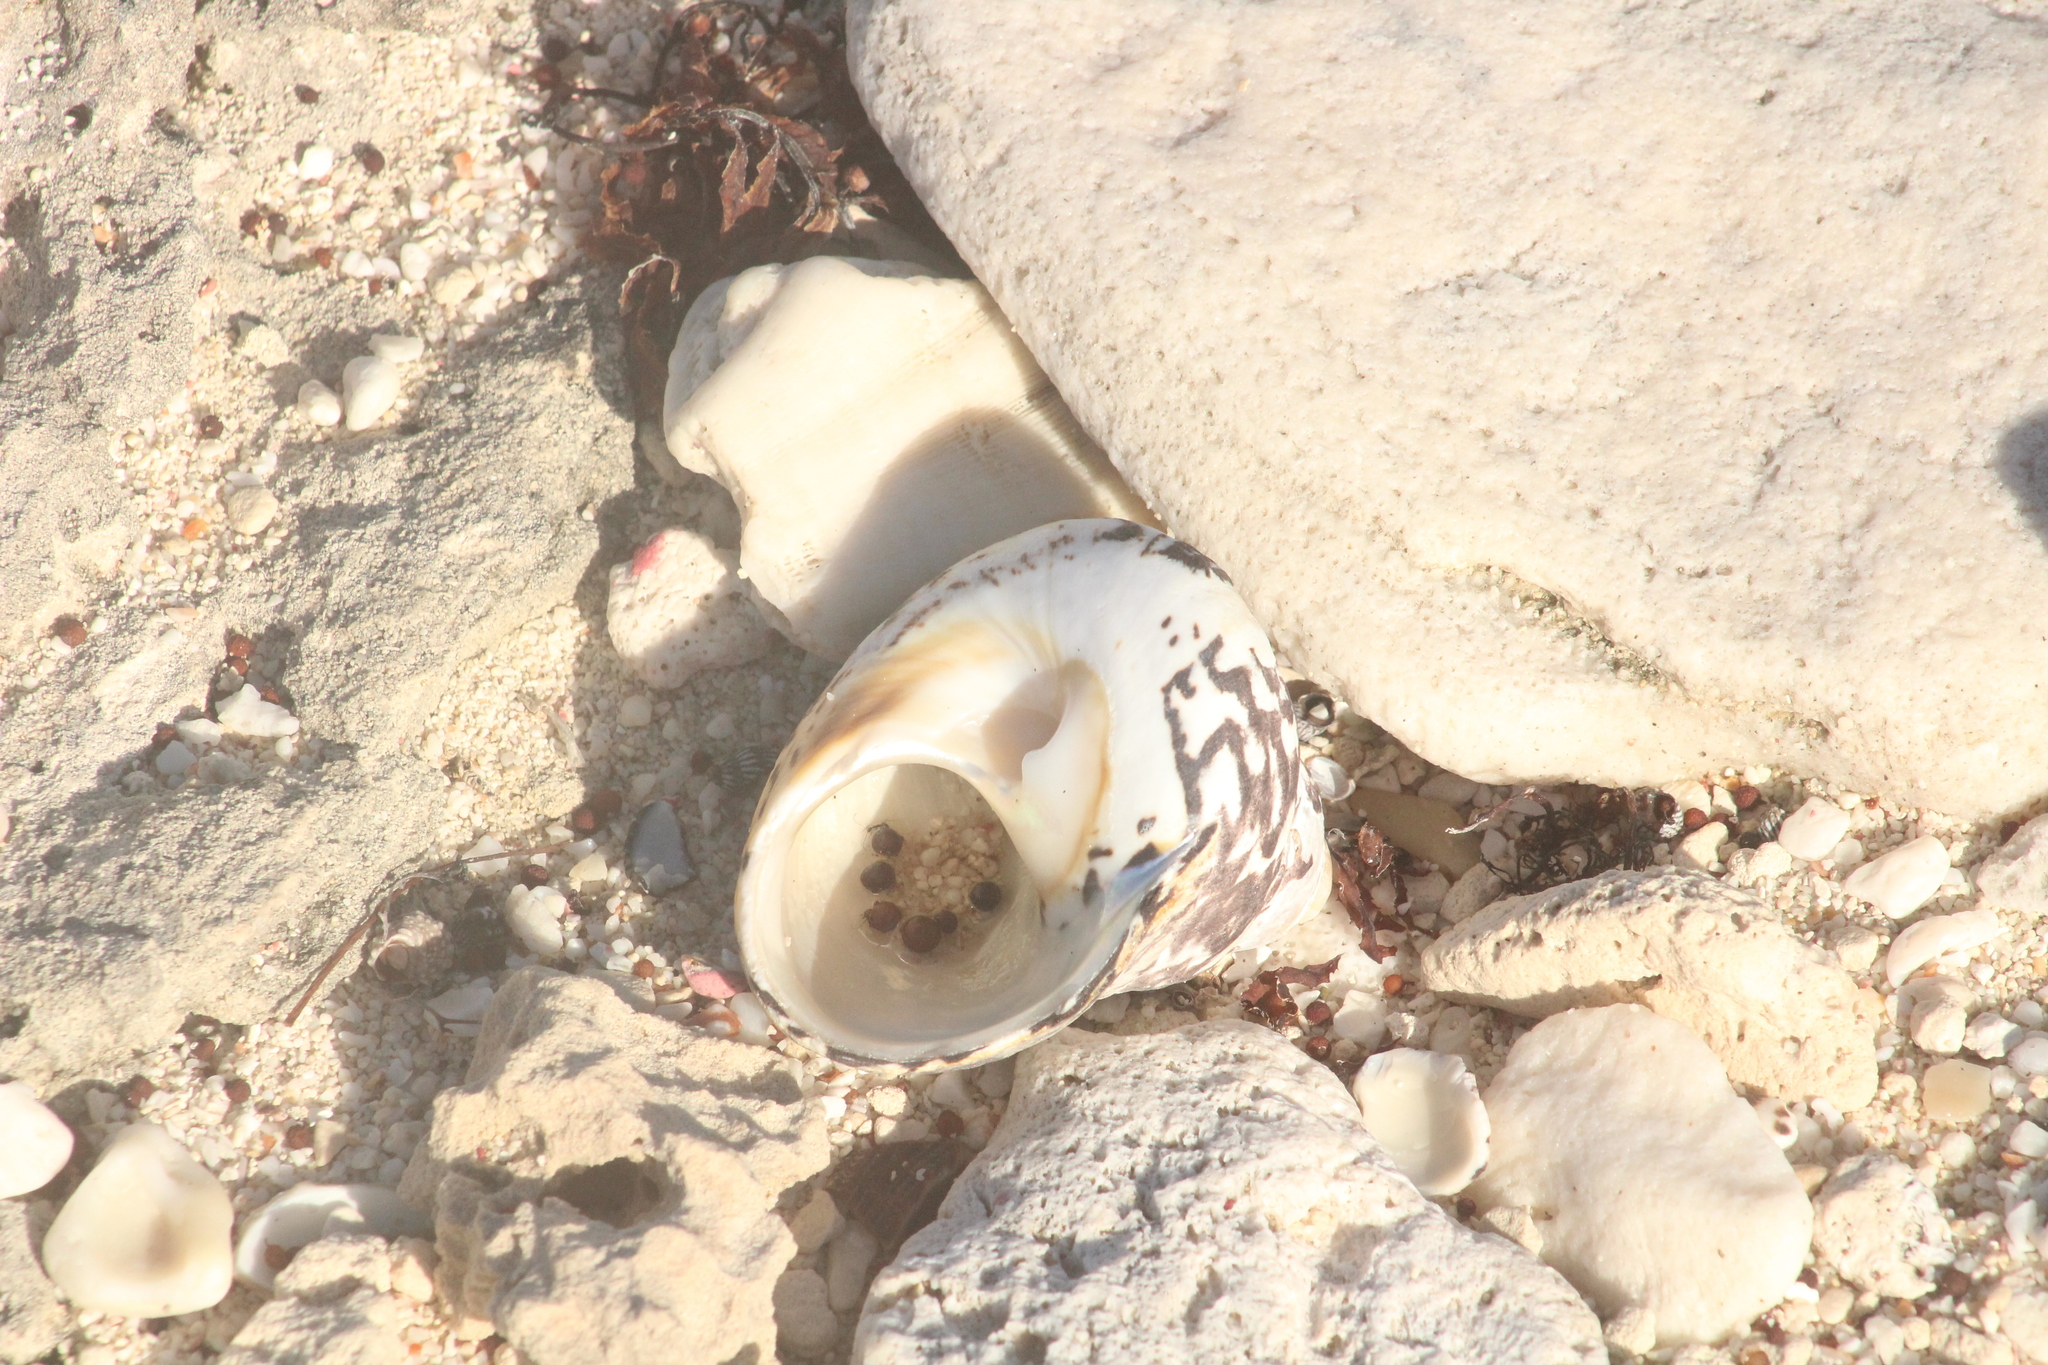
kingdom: Animalia
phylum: Mollusca
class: Gastropoda
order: Trochida
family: Tegulidae
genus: Cittarium
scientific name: Cittarium pica
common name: West indian topshell
